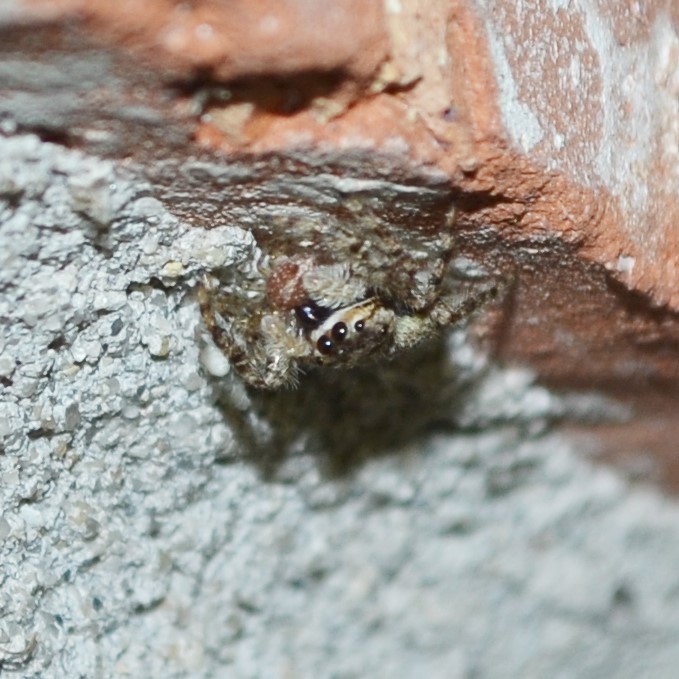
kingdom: Animalia
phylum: Arthropoda
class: Arachnida
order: Araneae
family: Salticidae
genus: Platycryptus
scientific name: Platycryptus undatus
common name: Tan jumping spider
